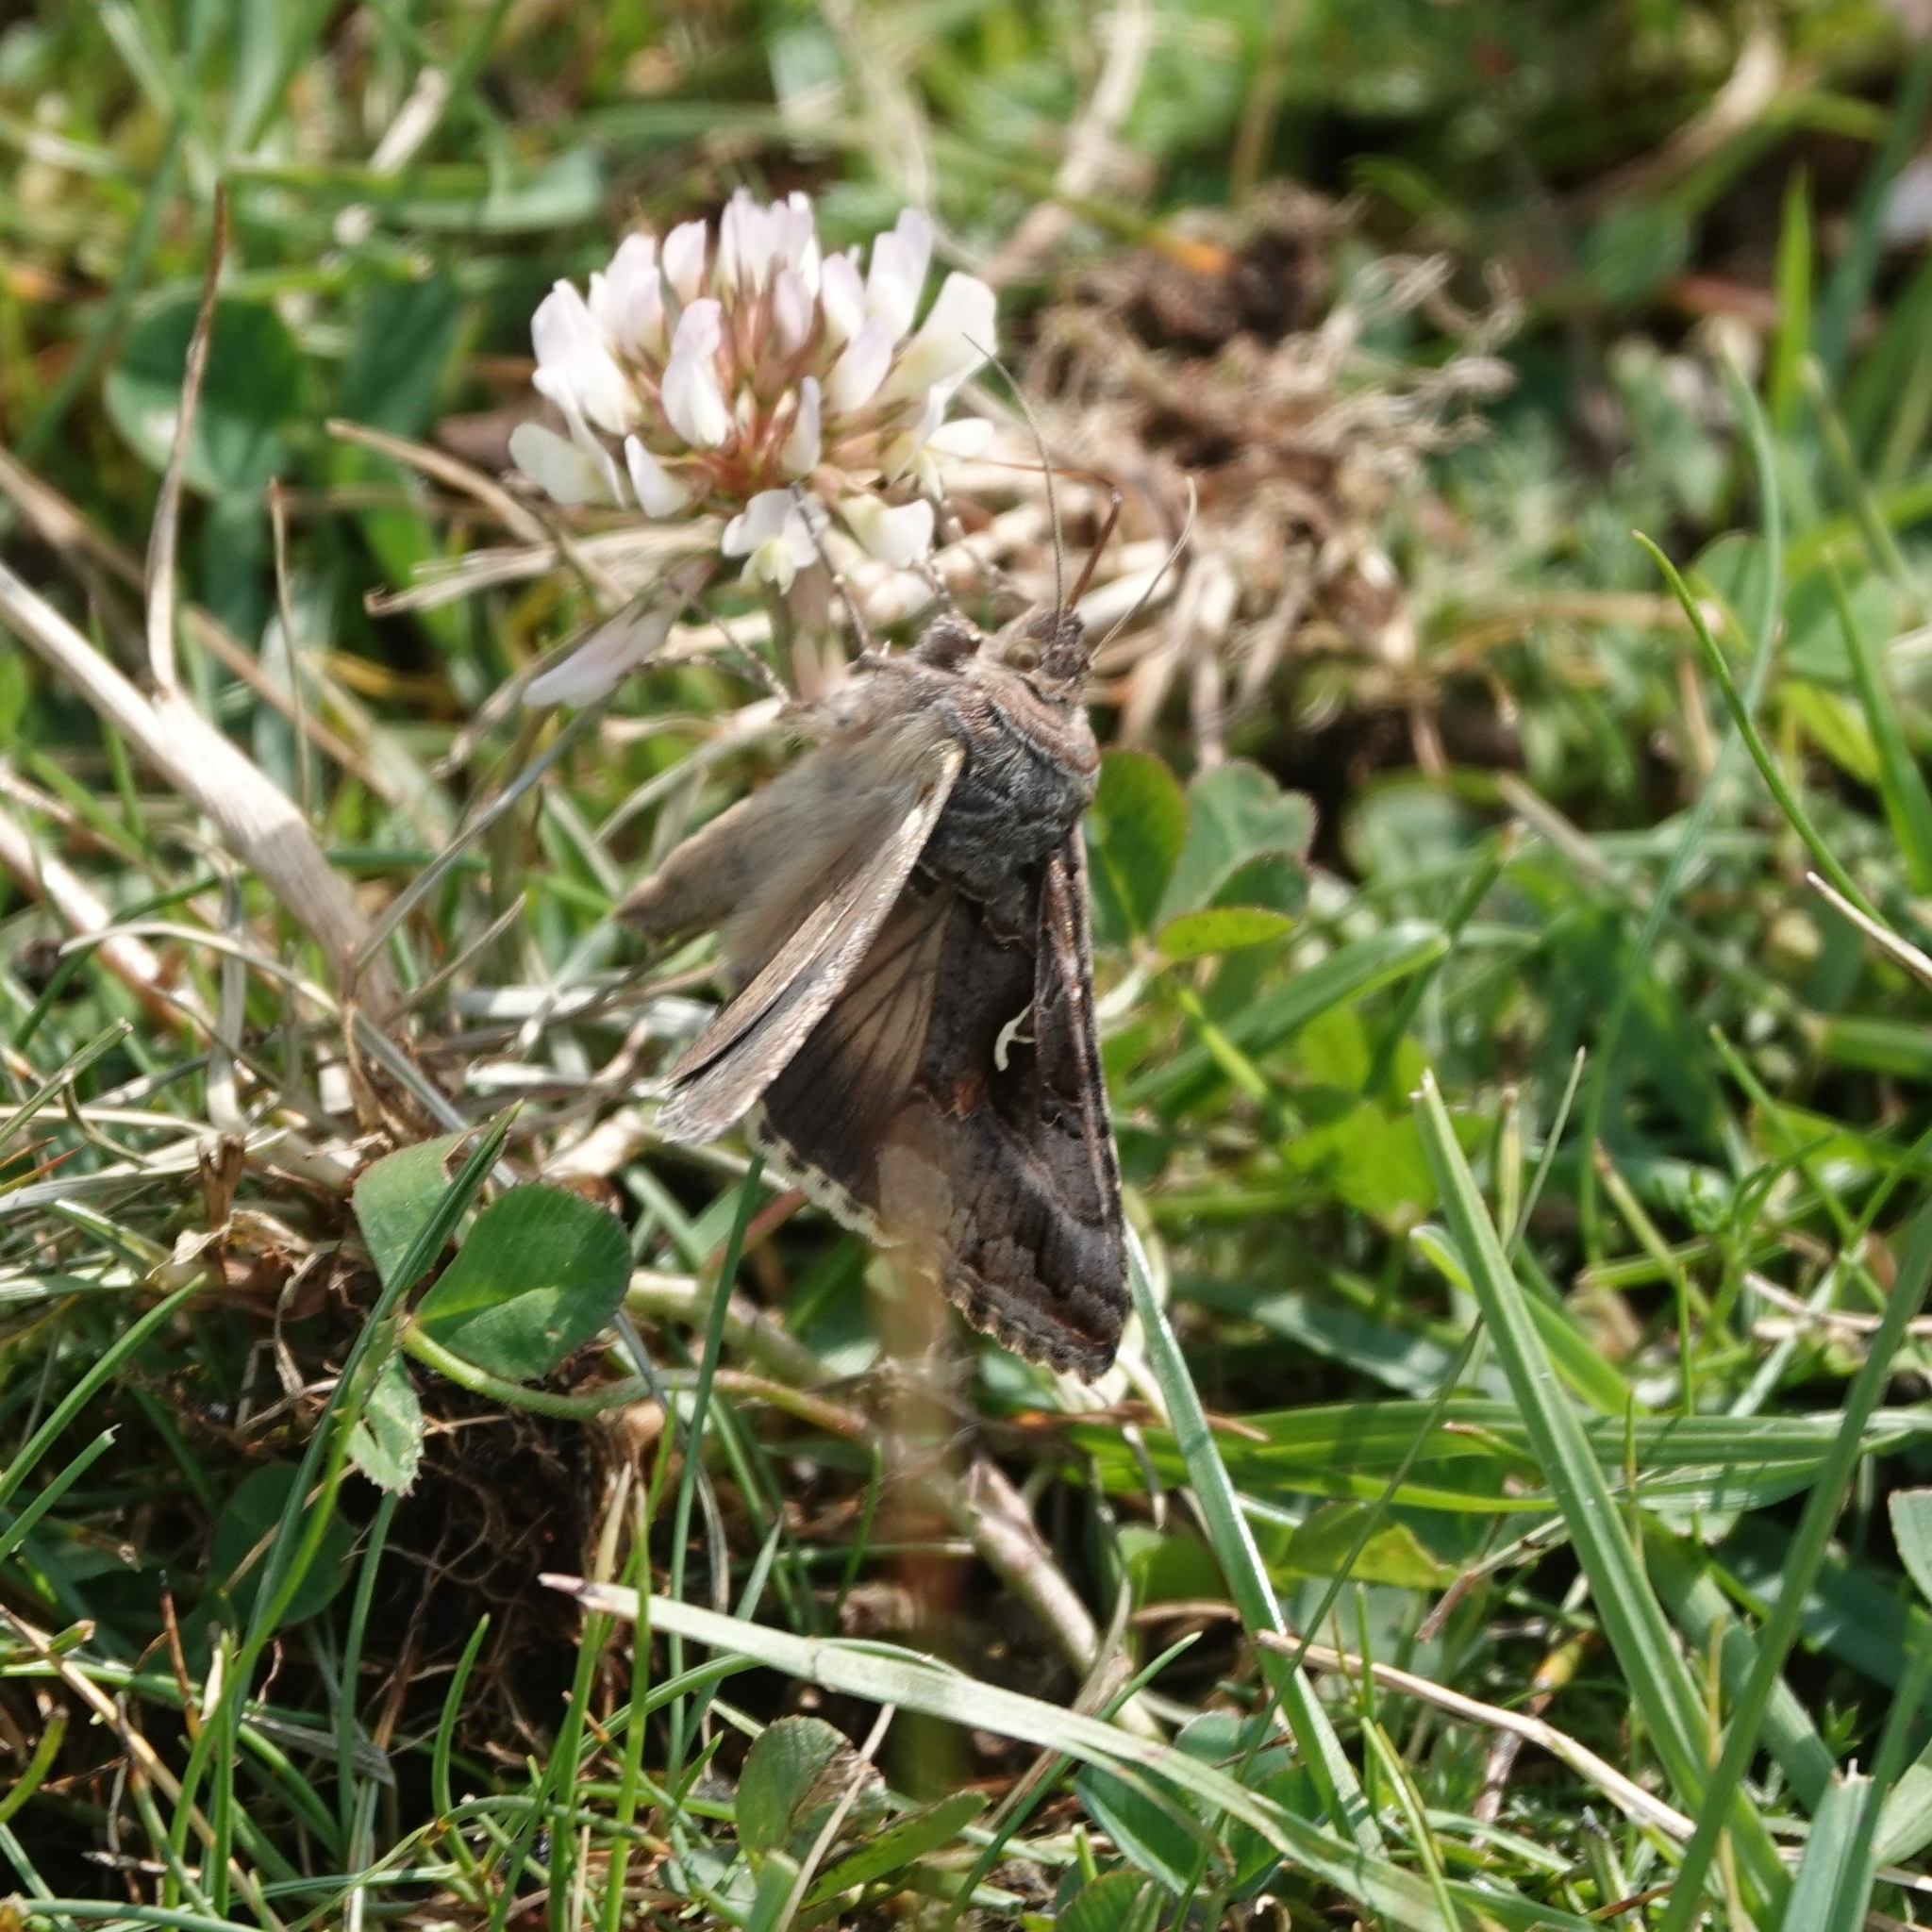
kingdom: Animalia
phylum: Arthropoda
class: Insecta
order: Lepidoptera
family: Noctuidae
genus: Autographa
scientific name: Autographa gamma
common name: Silver y
